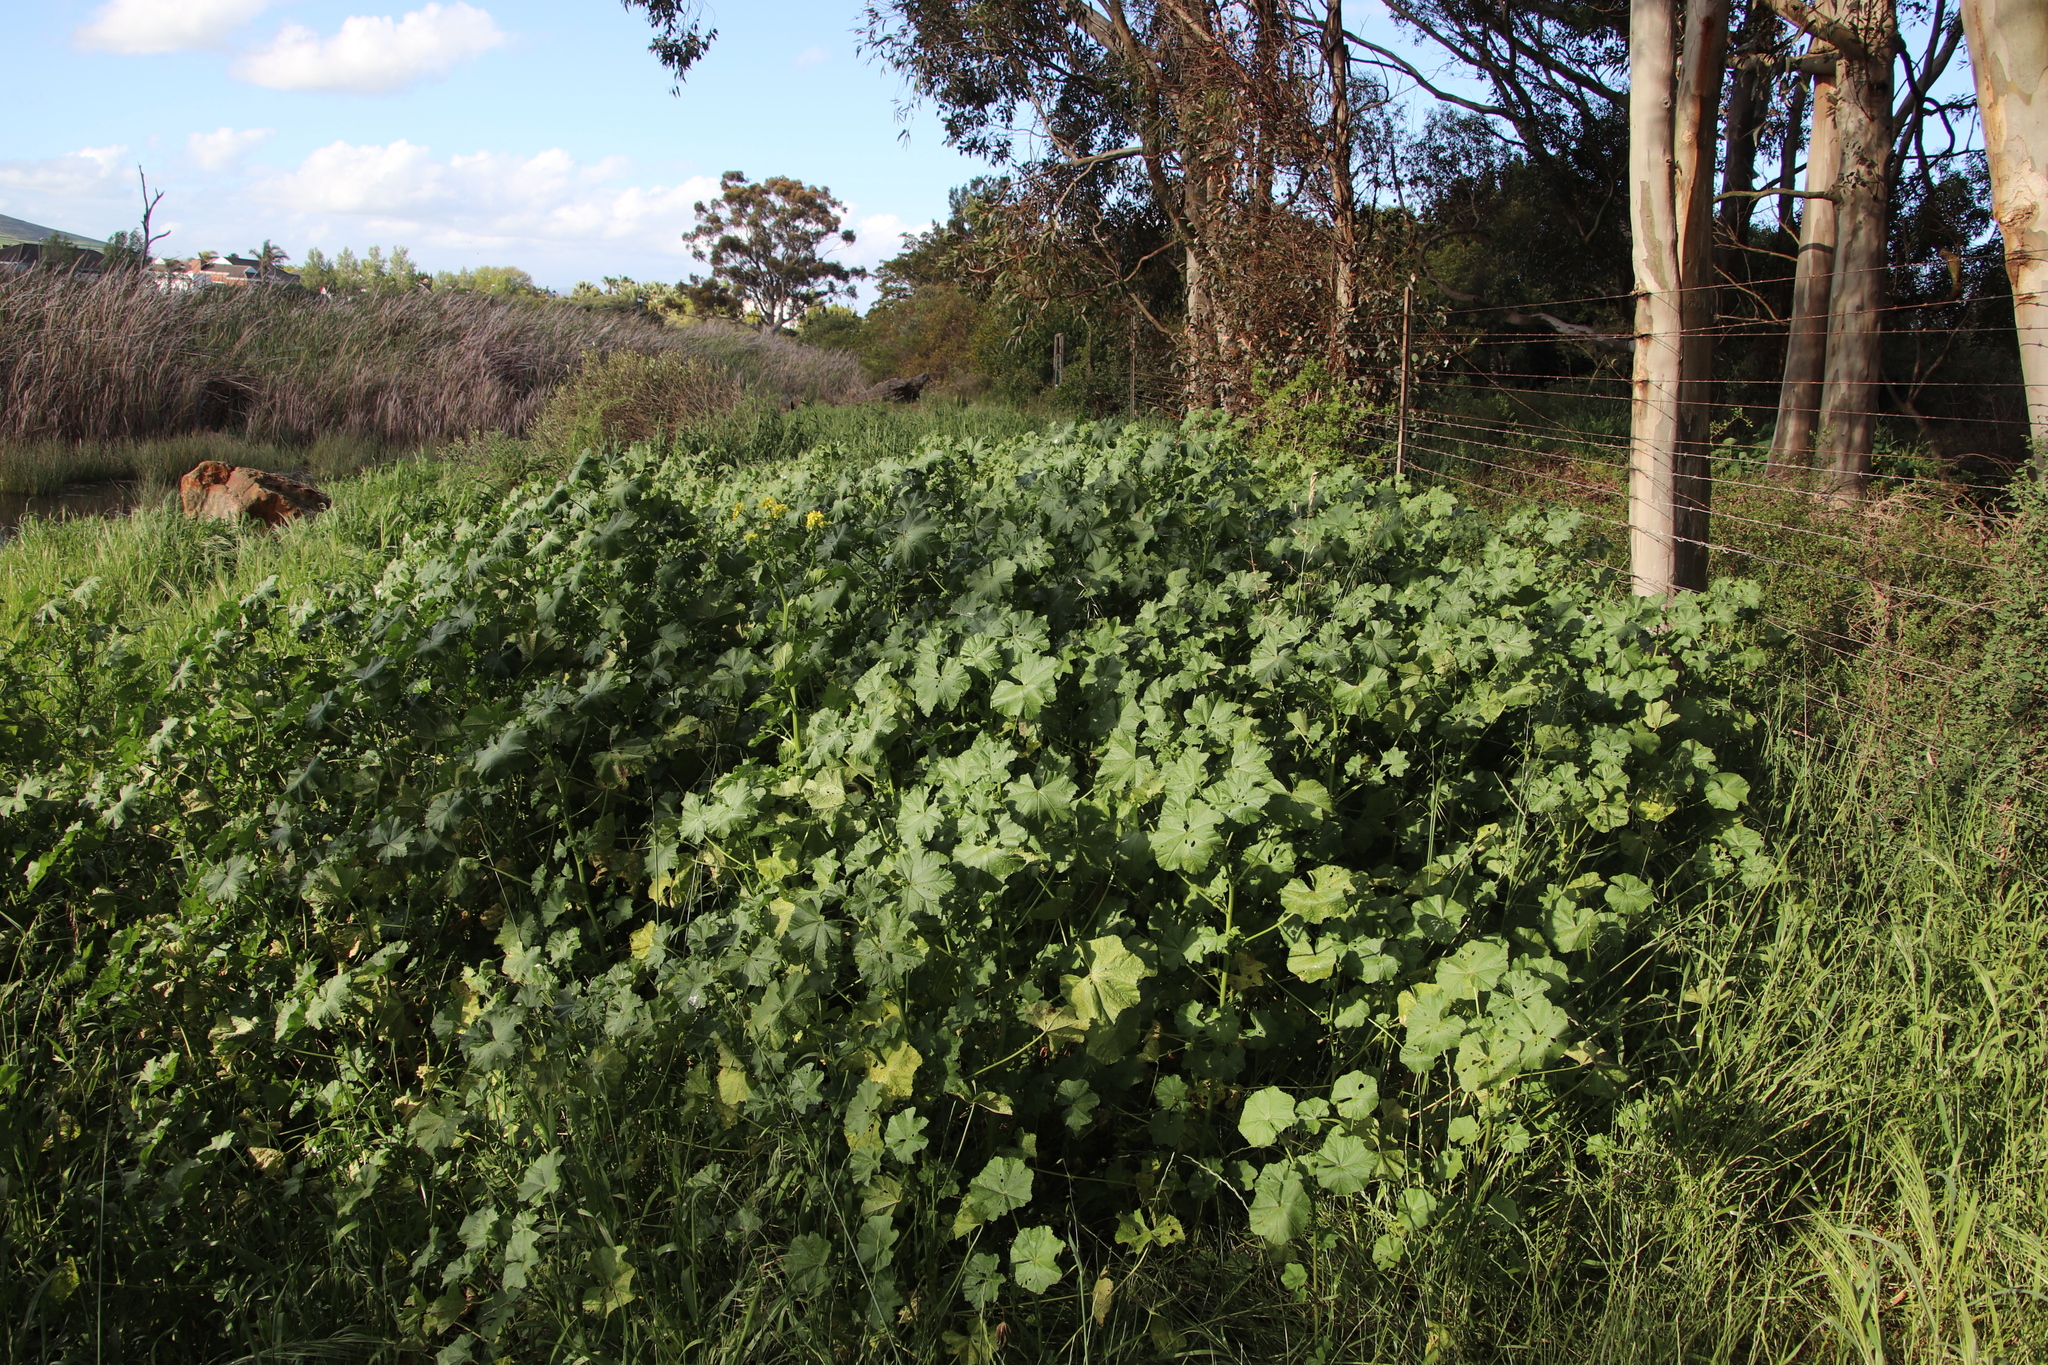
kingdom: Plantae
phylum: Tracheophyta
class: Magnoliopsida
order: Malvales
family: Malvaceae
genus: Malva
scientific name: Malva arborea
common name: Tree mallow
